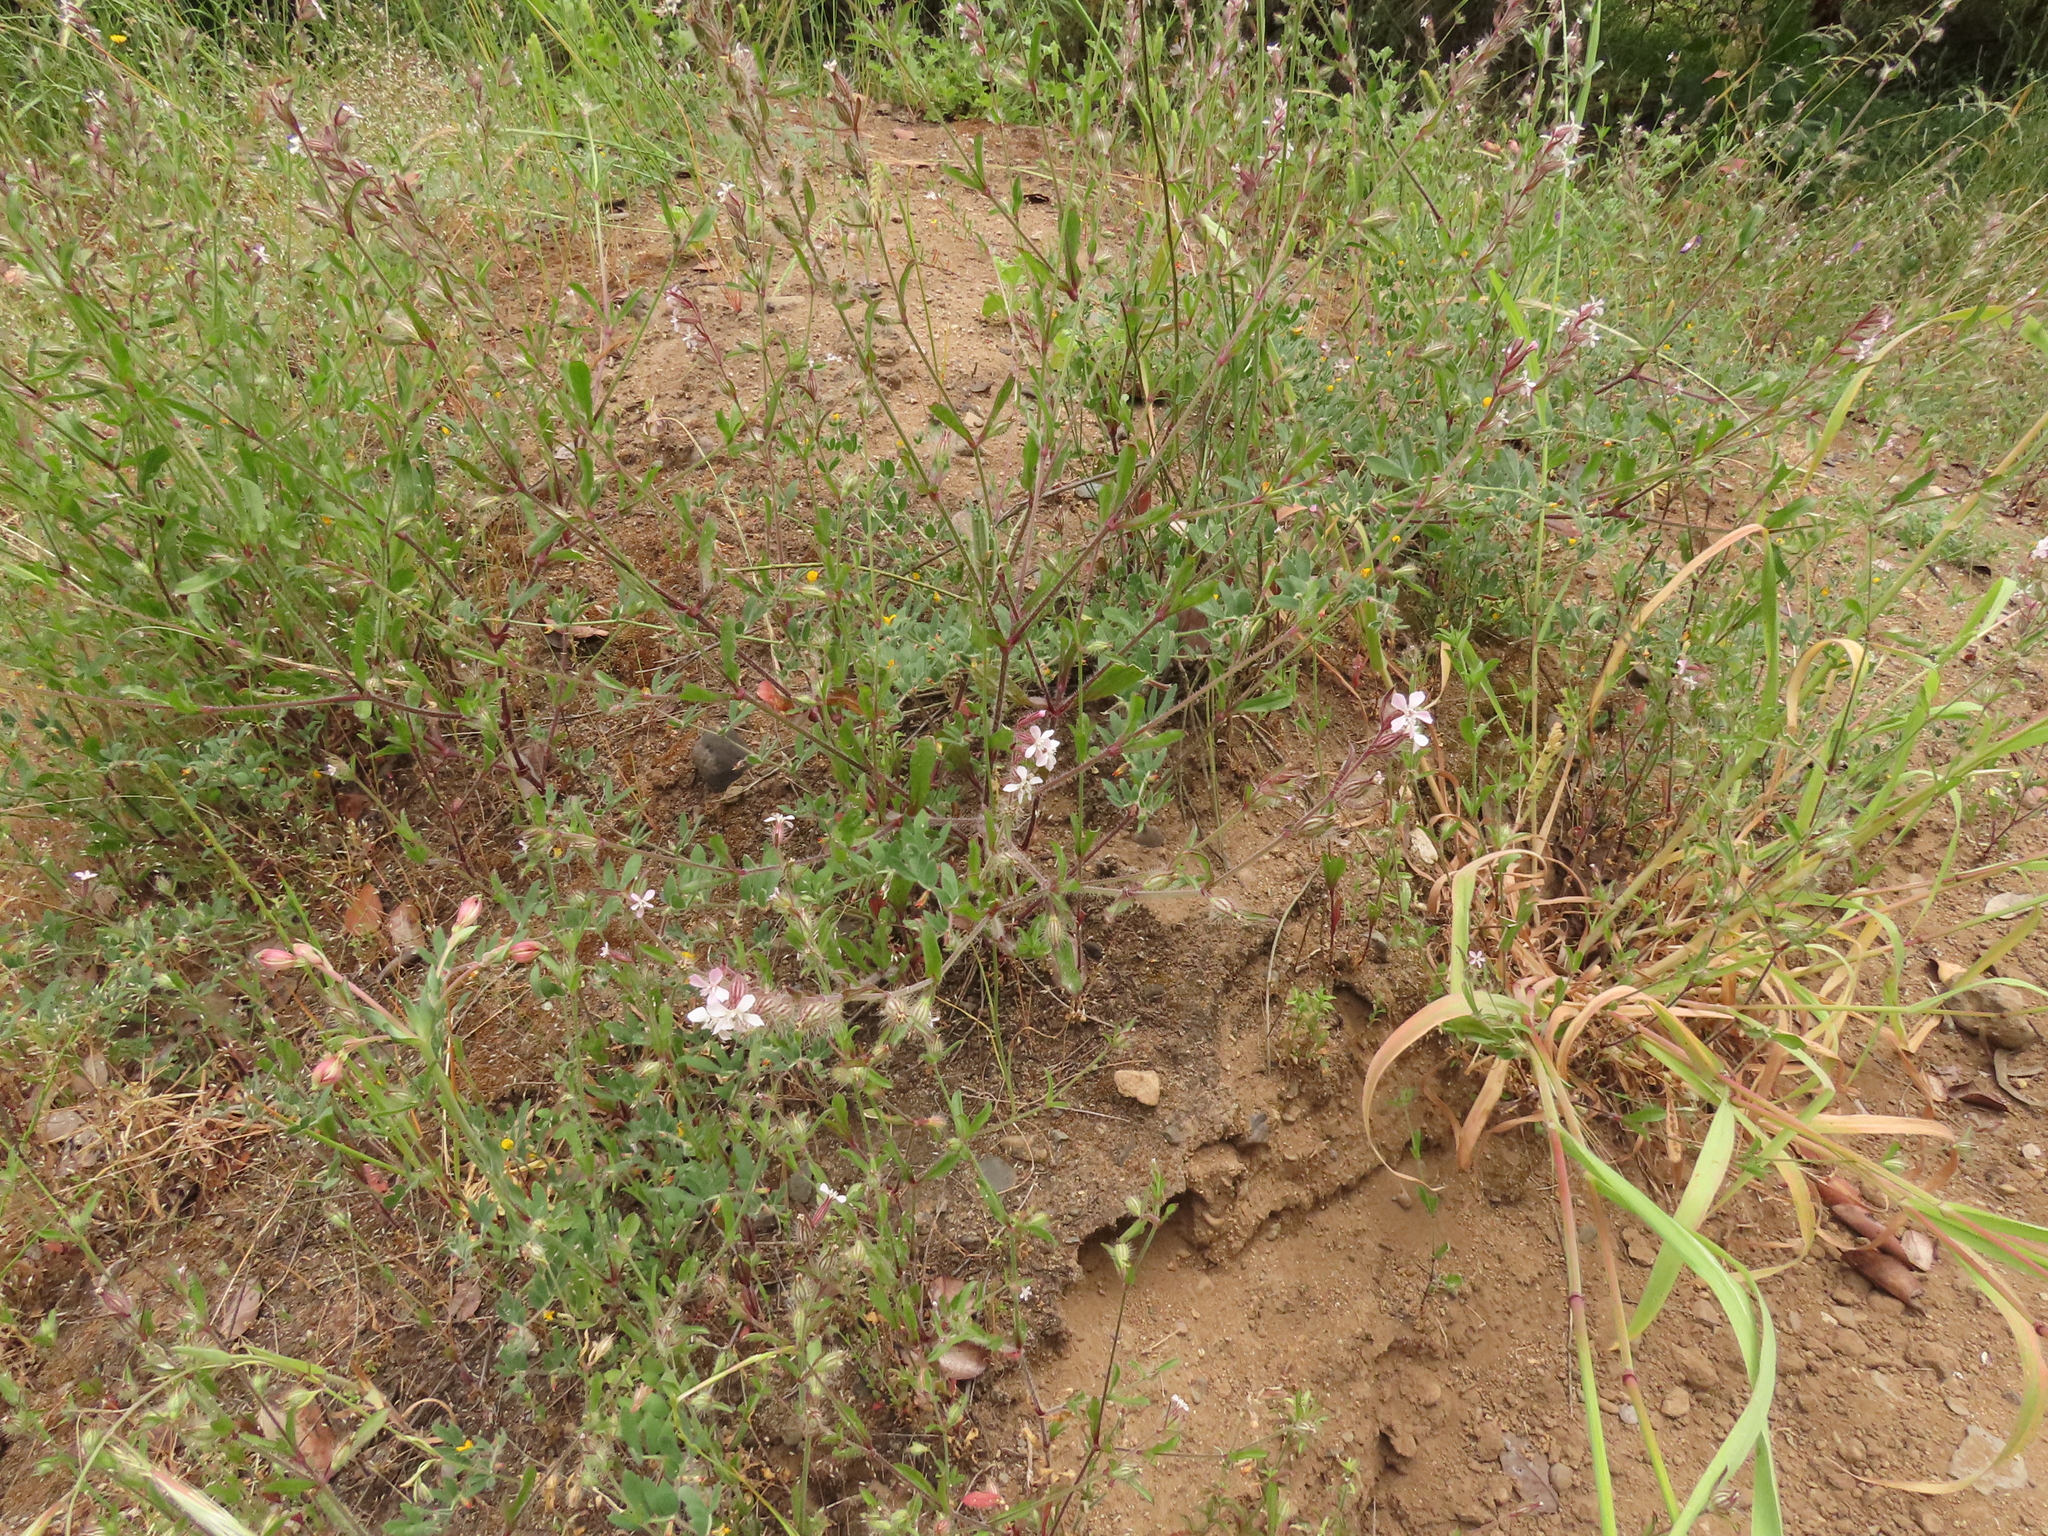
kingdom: Plantae
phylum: Tracheophyta
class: Magnoliopsida
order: Caryophyllales
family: Caryophyllaceae
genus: Silene
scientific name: Silene gallica
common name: Small-flowered catchfly
